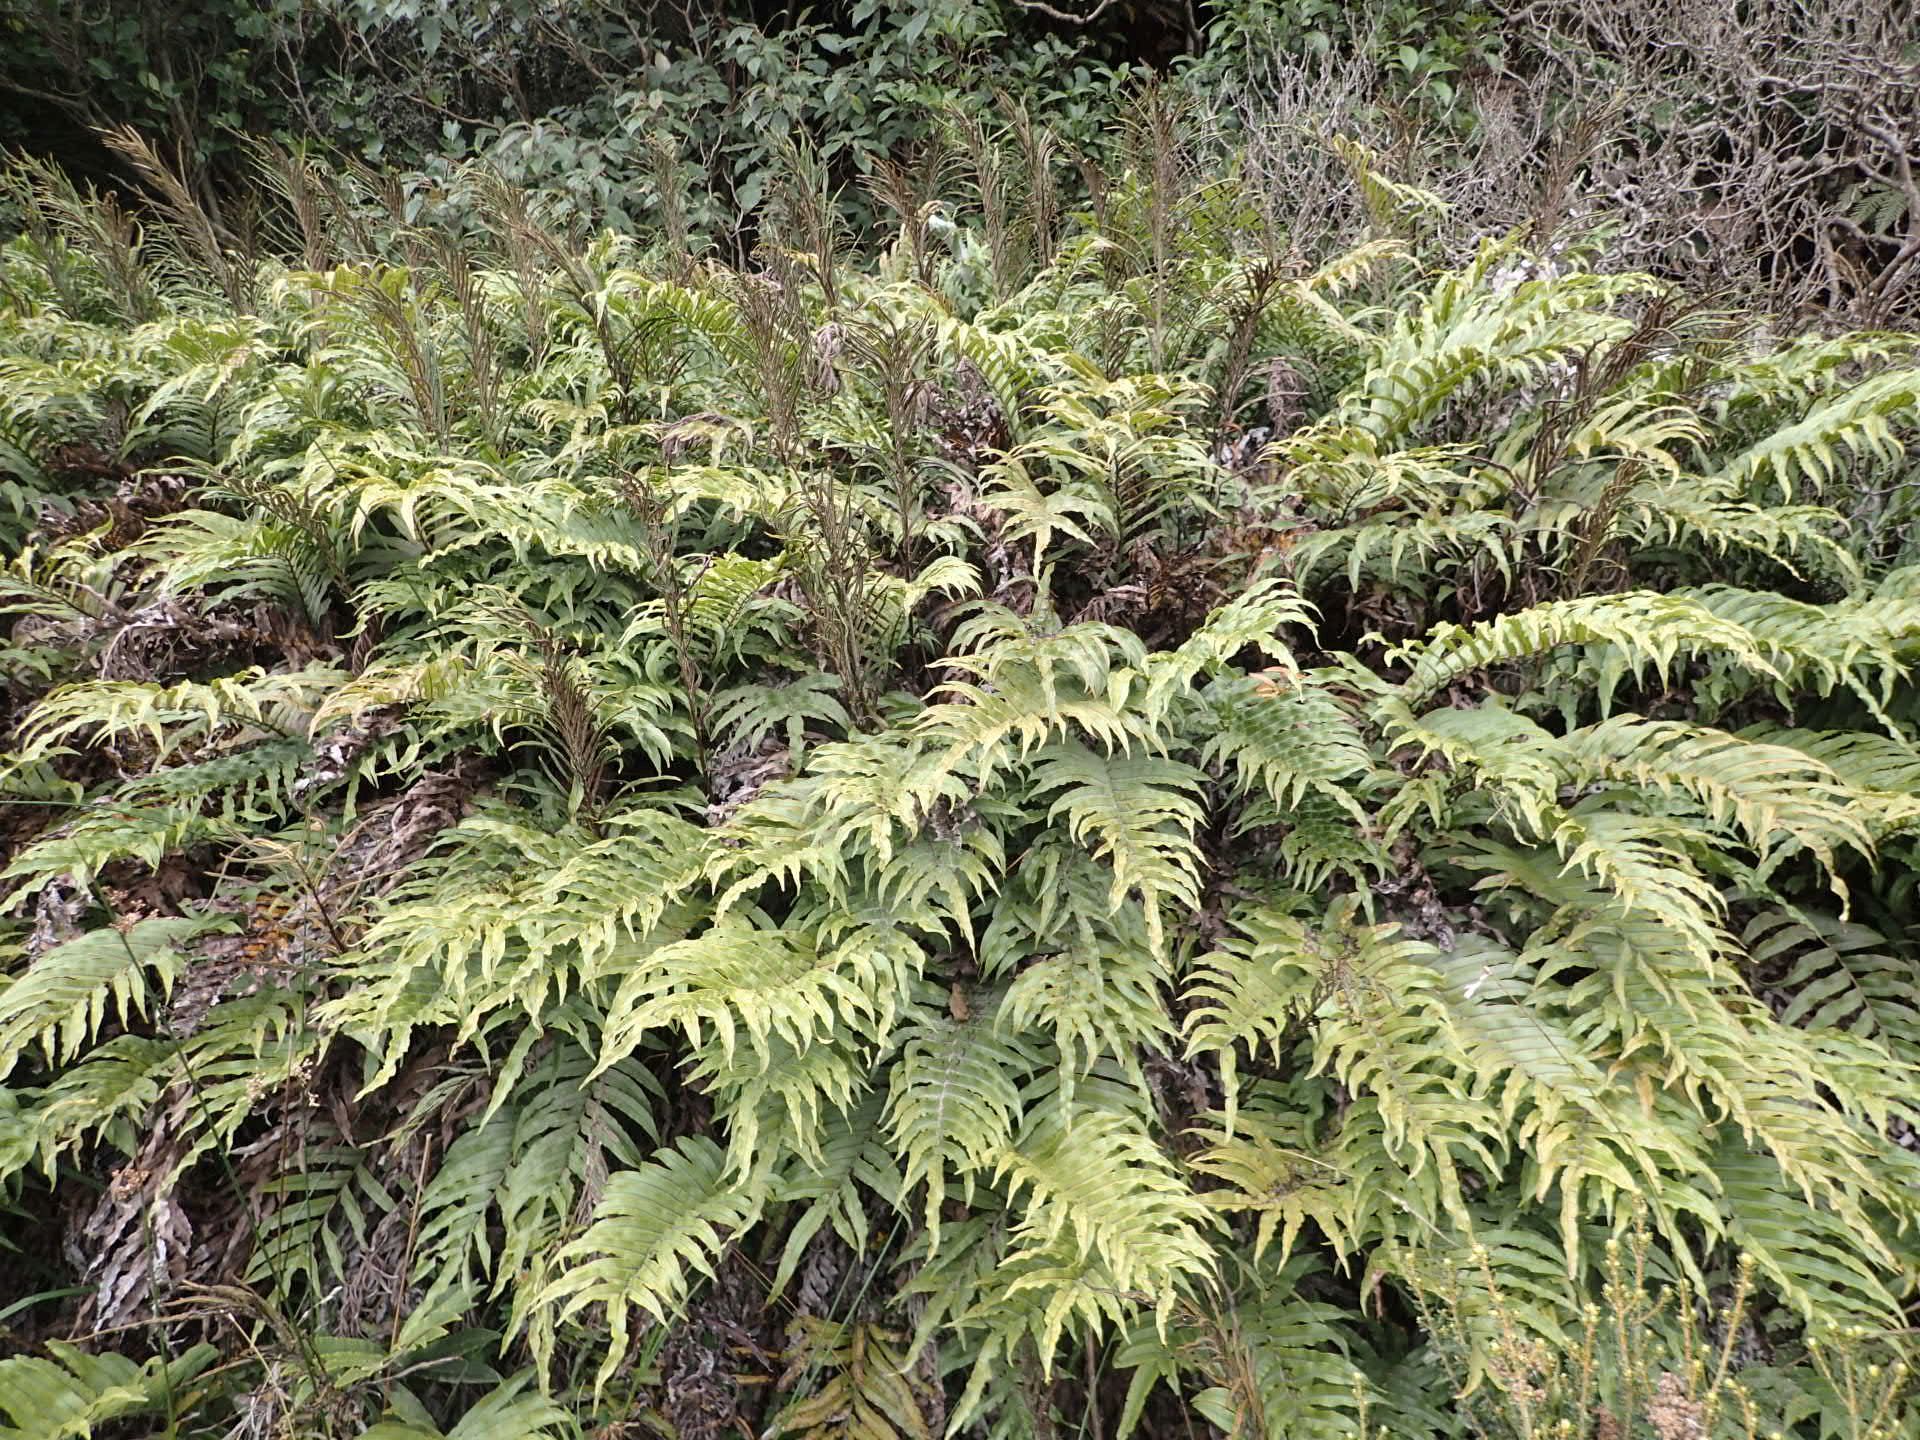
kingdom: Plantae
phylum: Tracheophyta
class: Polypodiopsida
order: Polypodiales
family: Blechnaceae
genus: Parablechnum
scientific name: Parablechnum procerum
